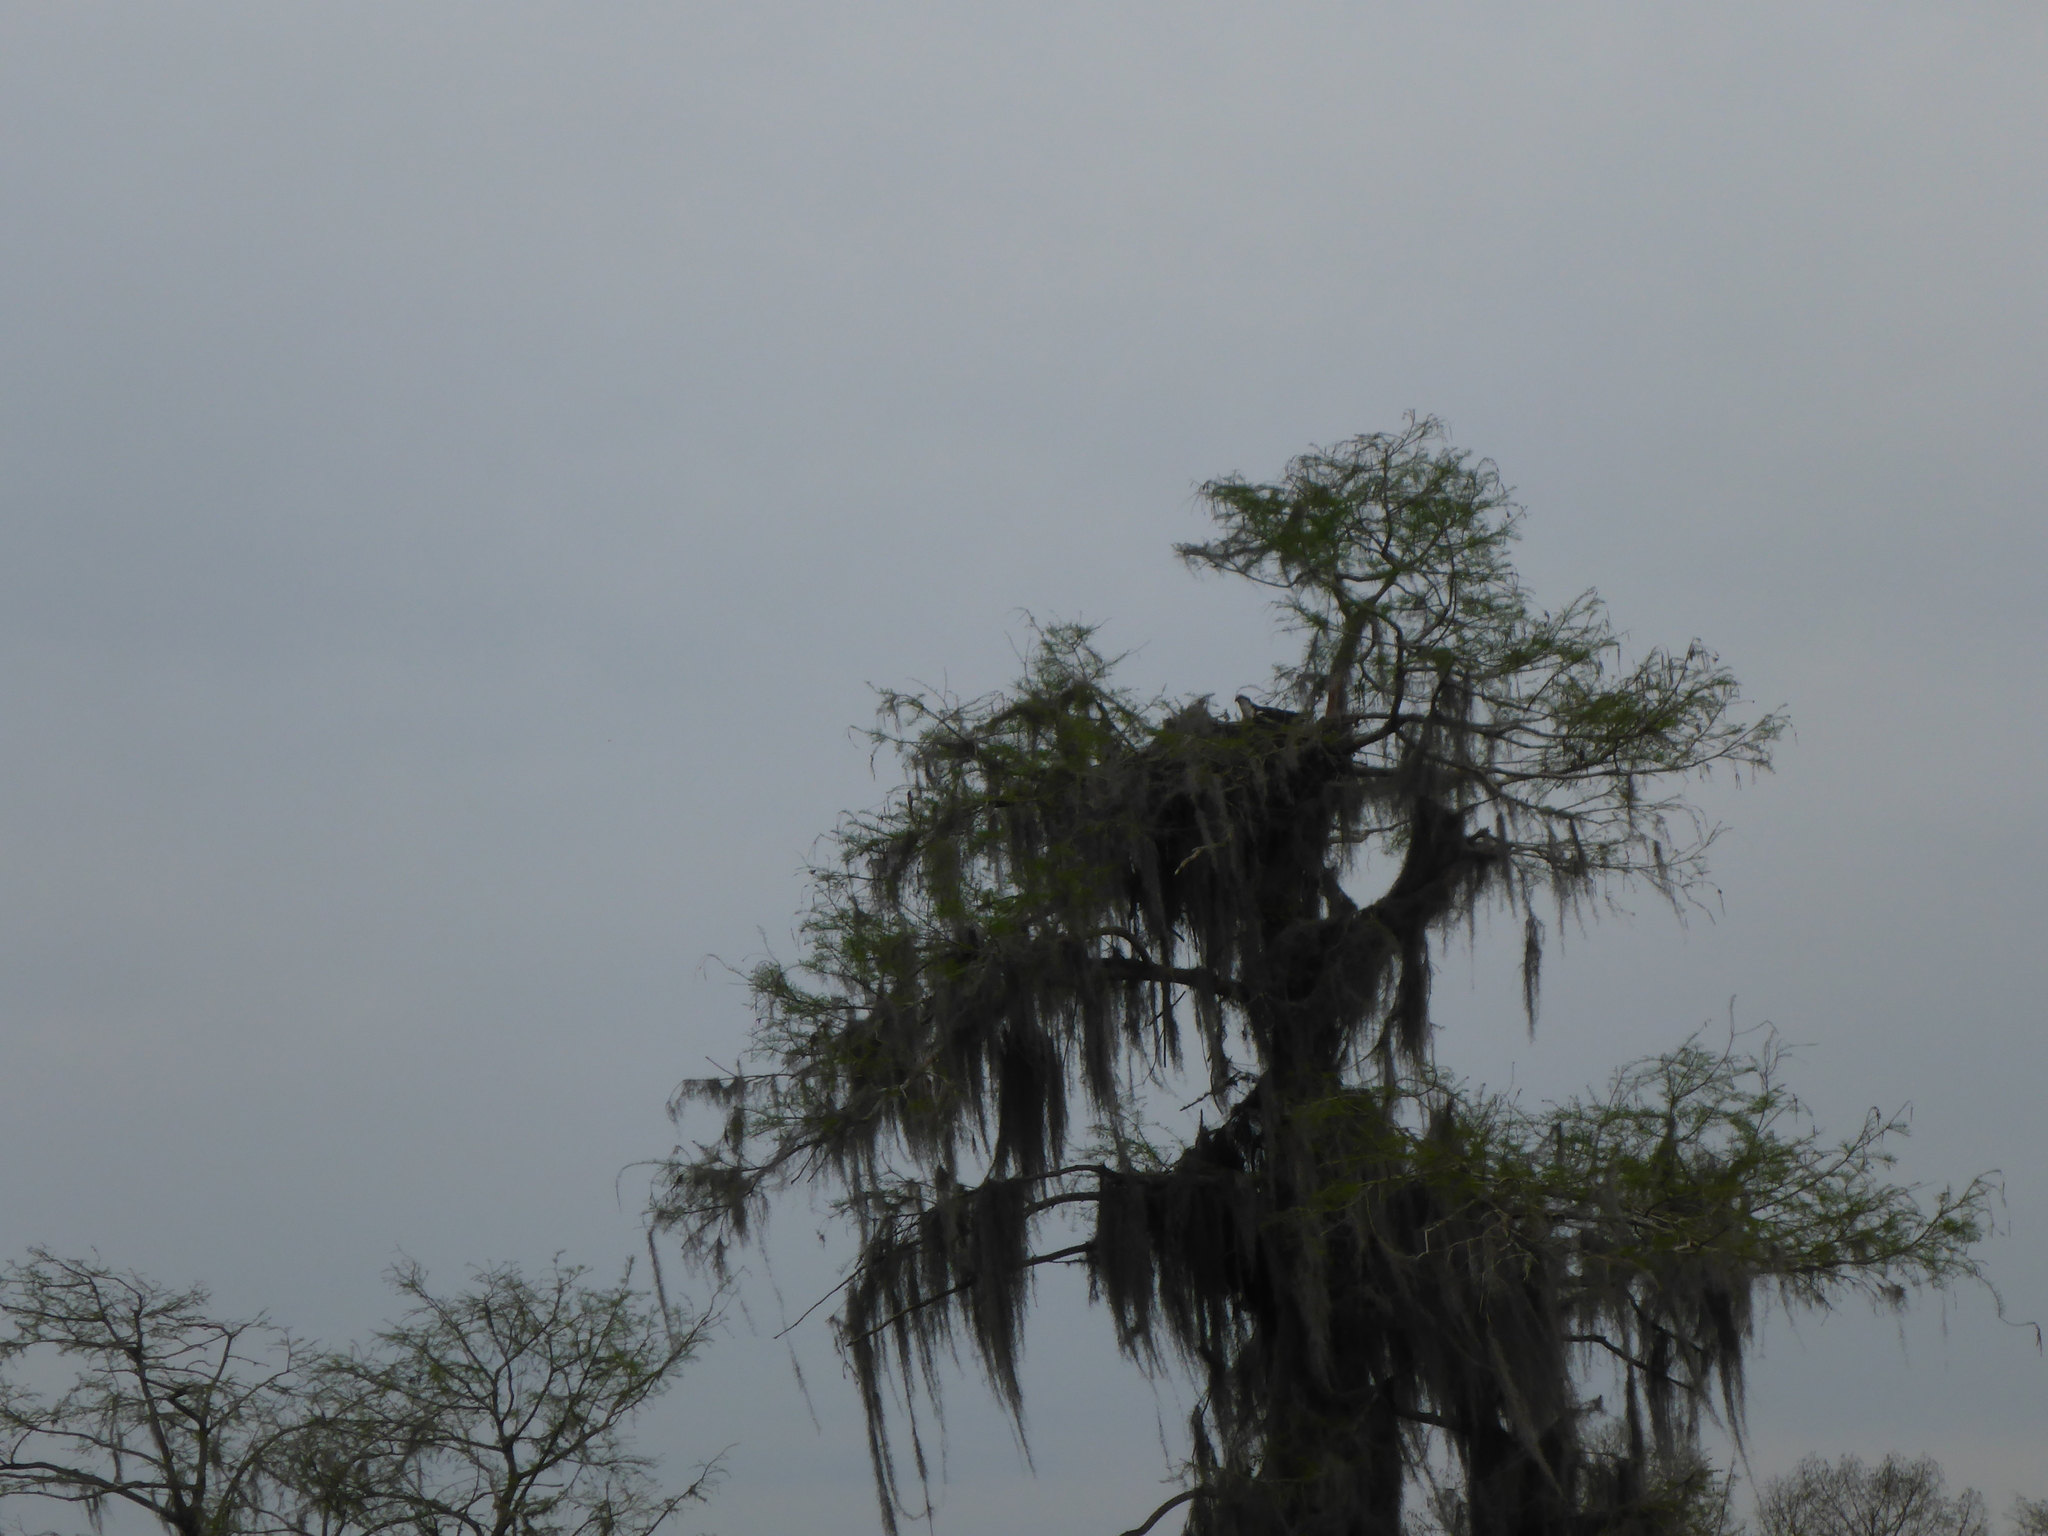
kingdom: Animalia
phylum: Chordata
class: Aves
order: Accipitriformes
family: Pandionidae
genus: Pandion
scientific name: Pandion haliaetus
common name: Osprey
